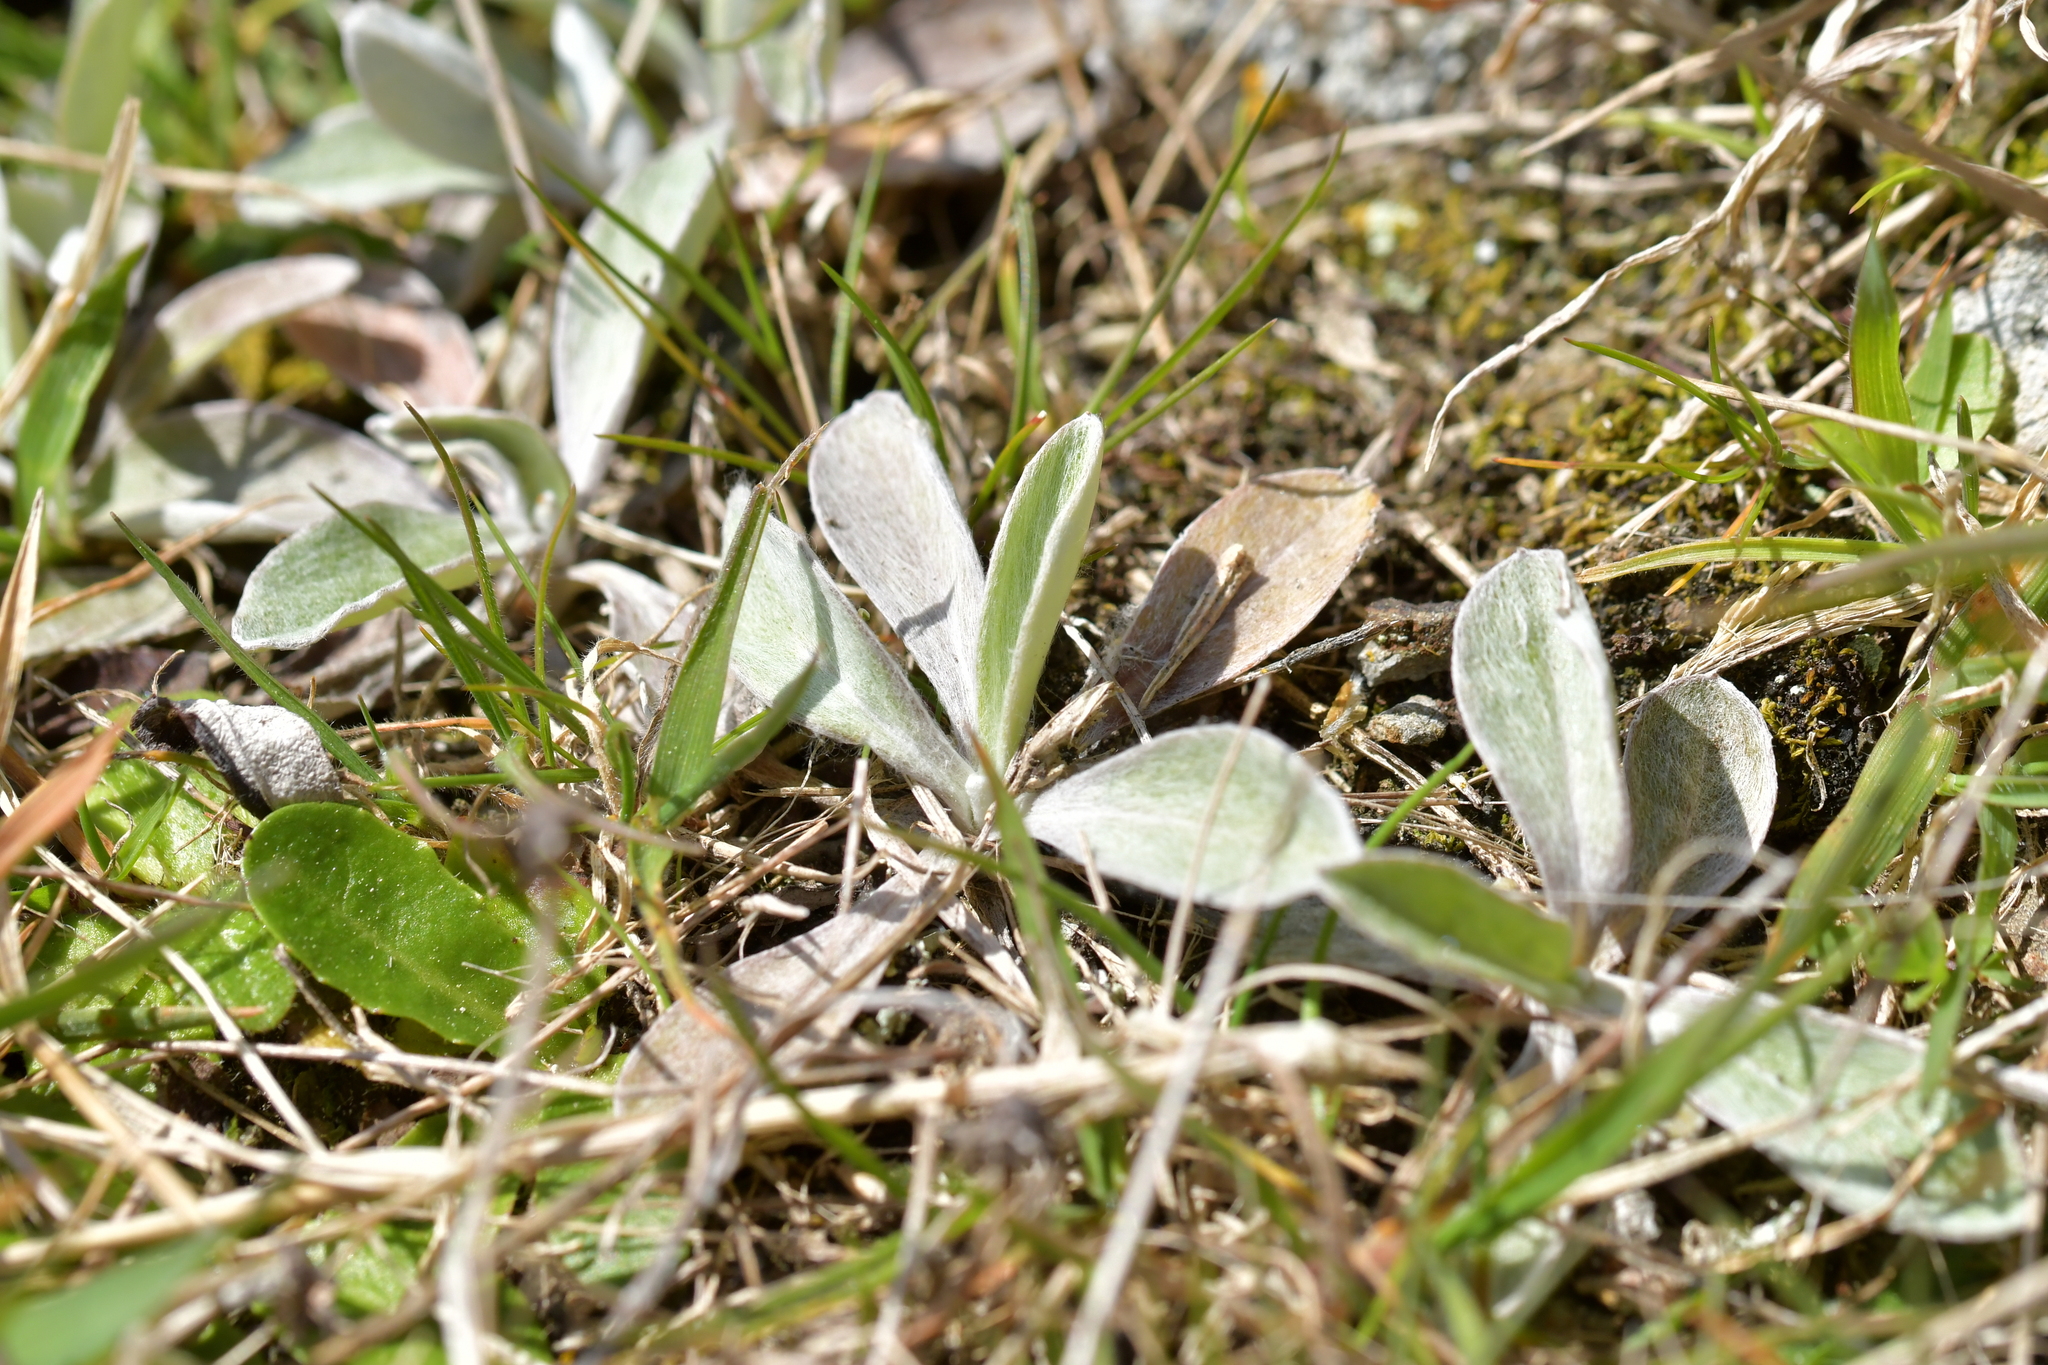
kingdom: Plantae
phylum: Tracheophyta
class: Magnoliopsida
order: Asterales
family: Asteraceae
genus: Euchiton
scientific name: Euchiton audax
